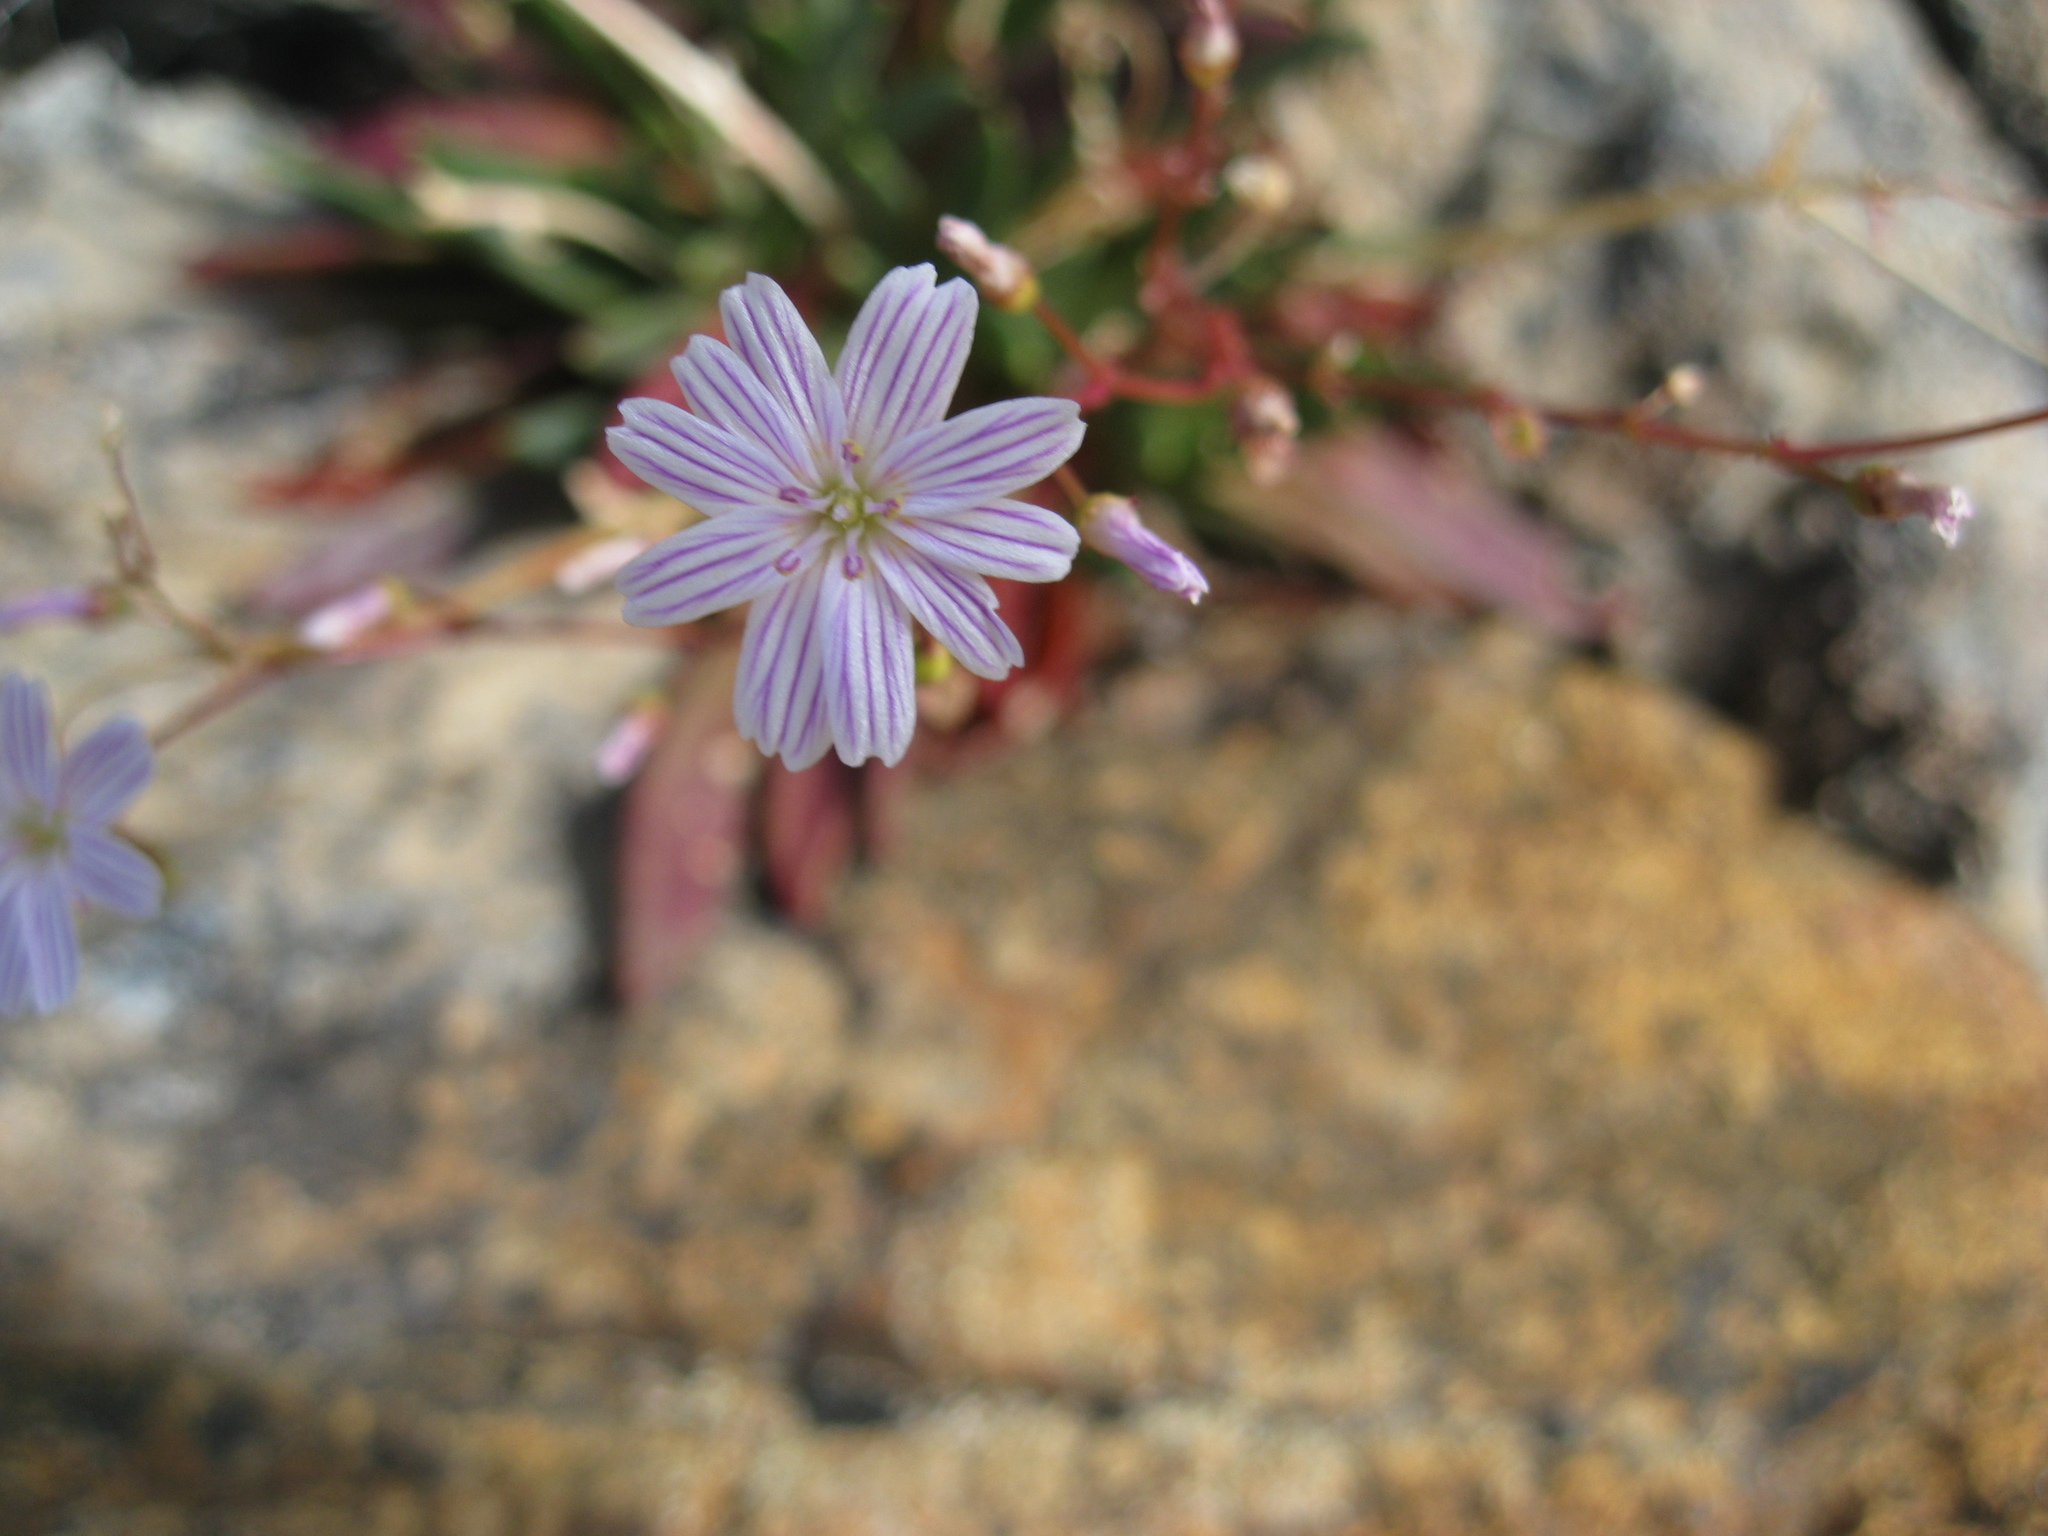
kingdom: Plantae
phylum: Tracheophyta
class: Magnoliopsida
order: Caryophyllales
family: Montiaceae
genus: Lewisia
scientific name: Lewisia columbiana
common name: Columbia lewisia
